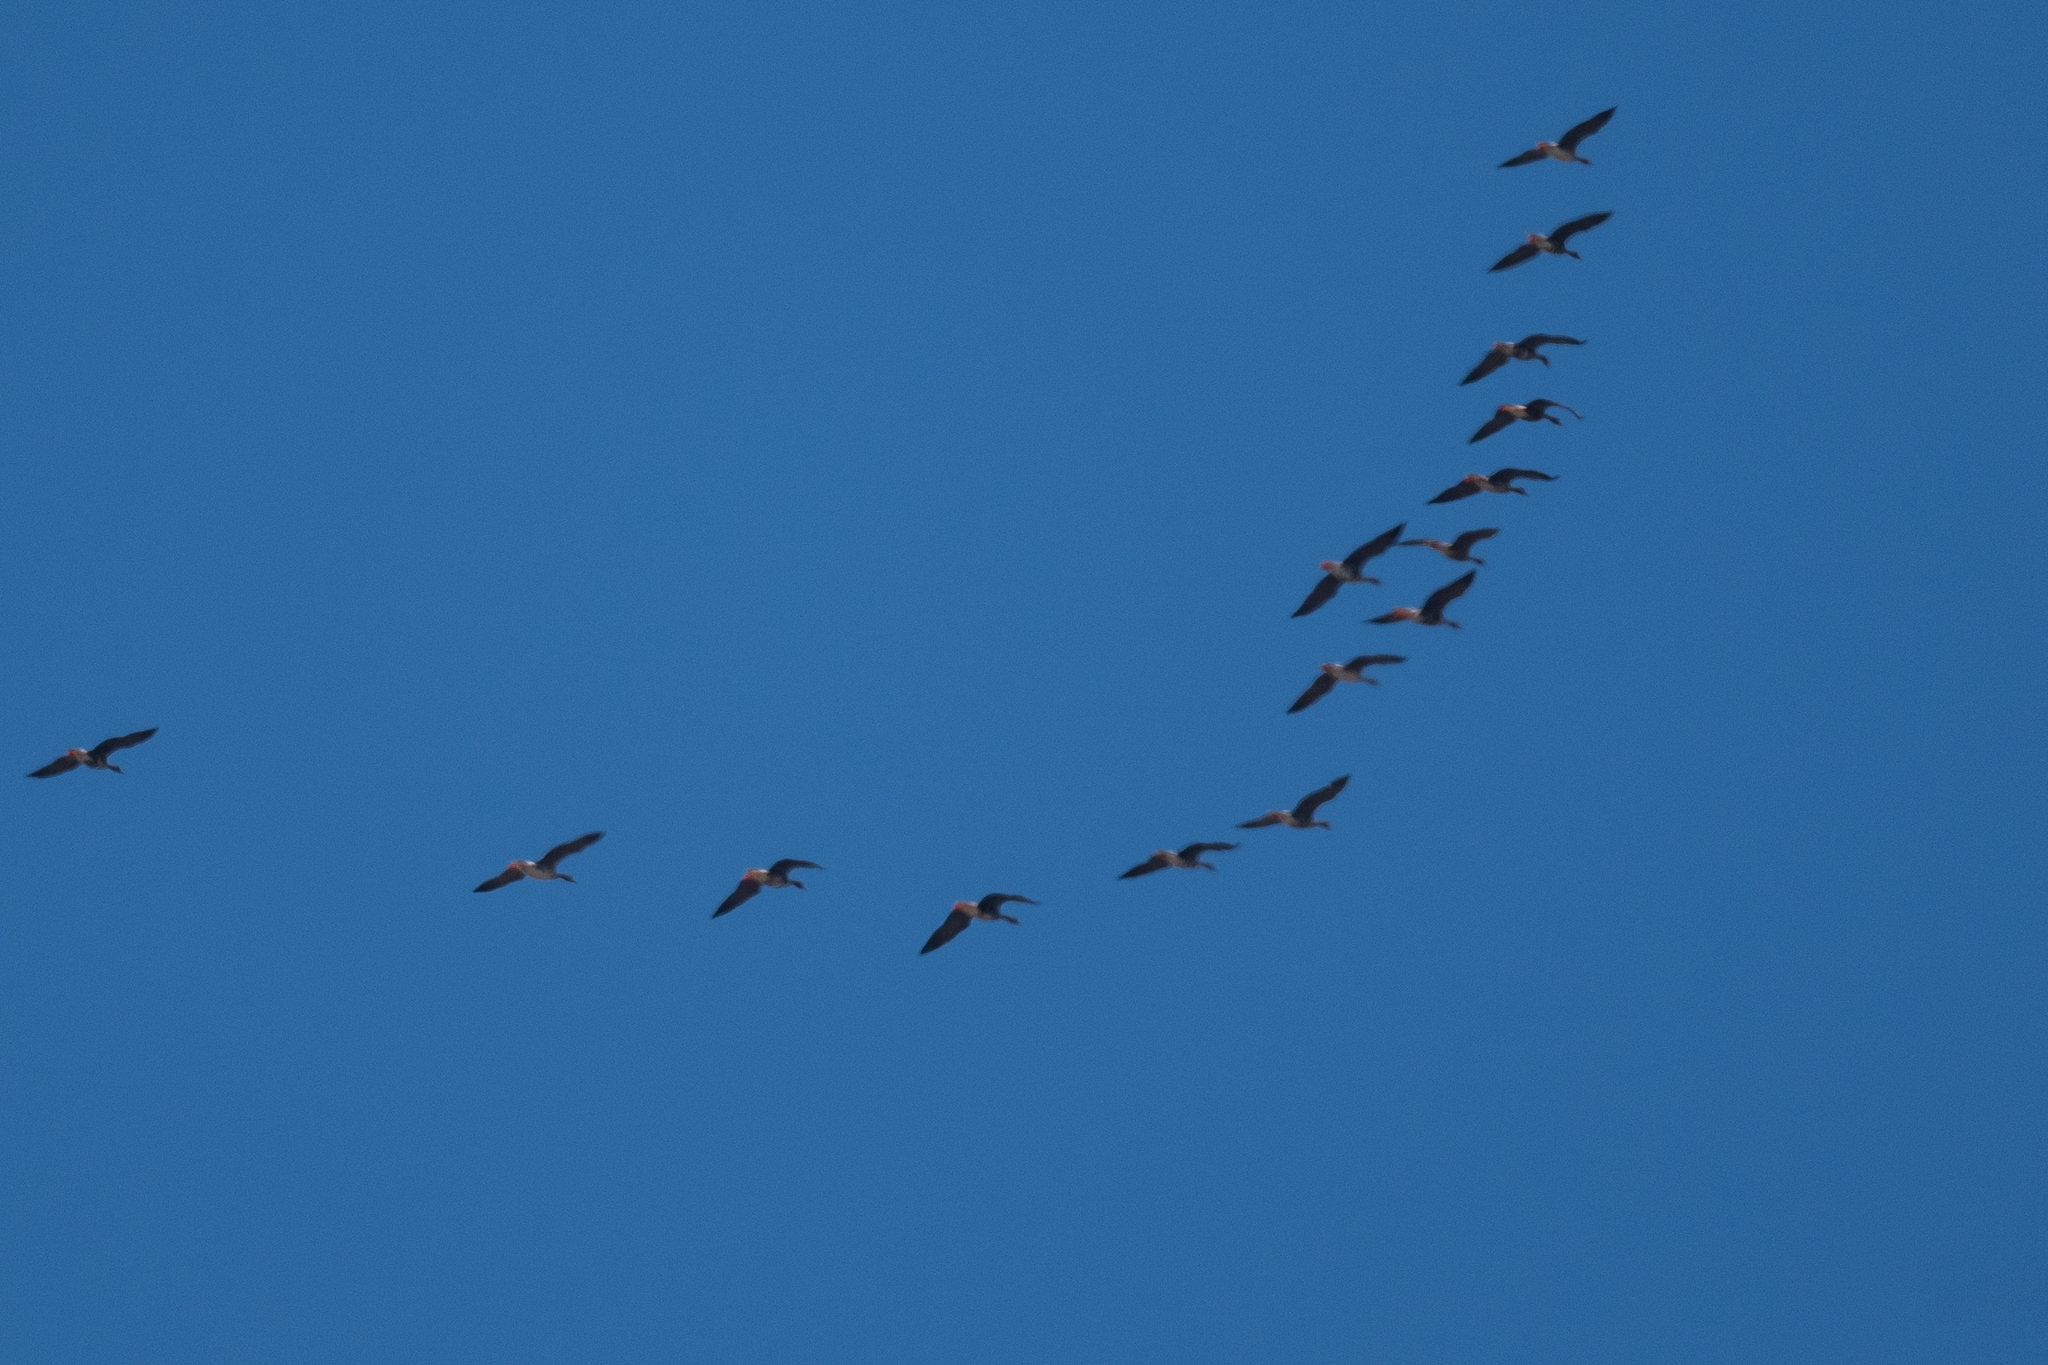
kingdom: Animalia
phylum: Chordata
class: Aves
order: Anseriformes
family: Anatidae
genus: Anser
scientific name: Anser albifrons
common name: Greater white-fronted goose
